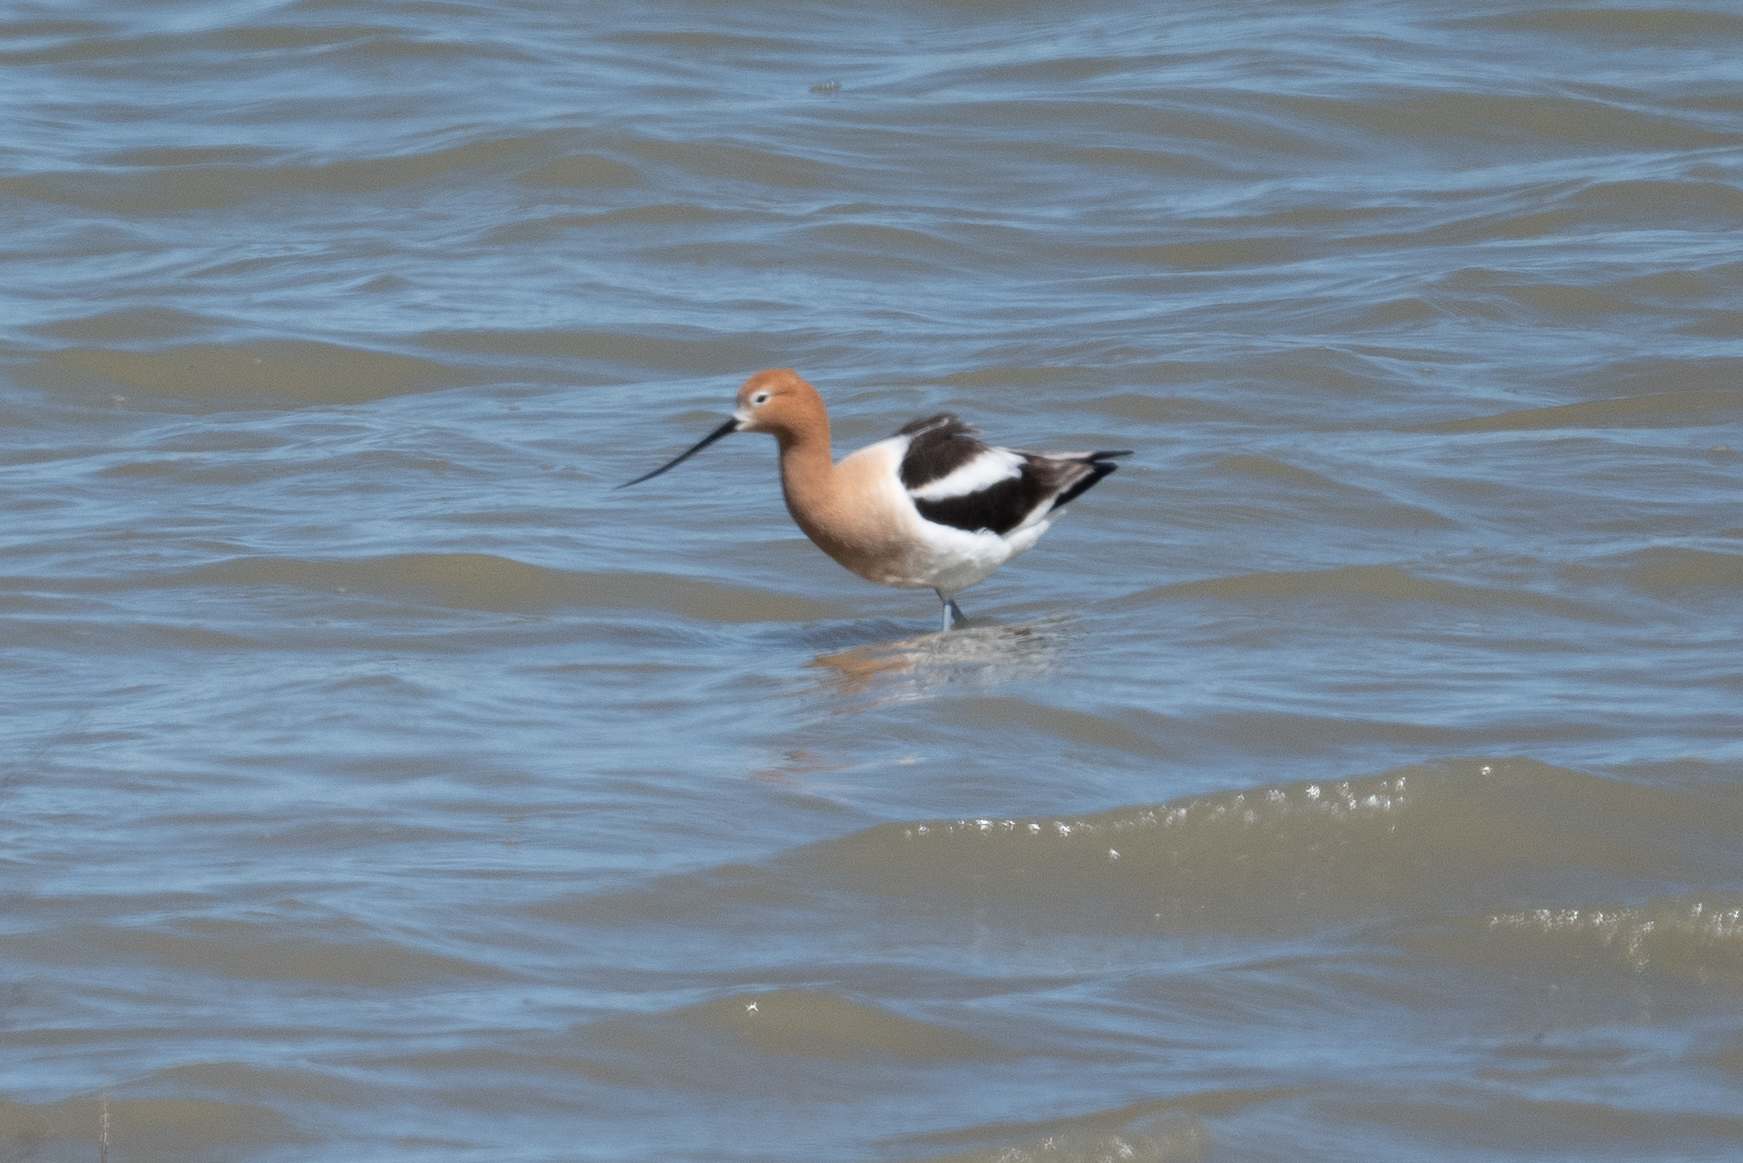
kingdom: Animalia
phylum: Chordata
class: Aves
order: Charadriiformes
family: Recurvirostridae
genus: Recurvirostra
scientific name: Recurvirostra americana
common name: American avocet
